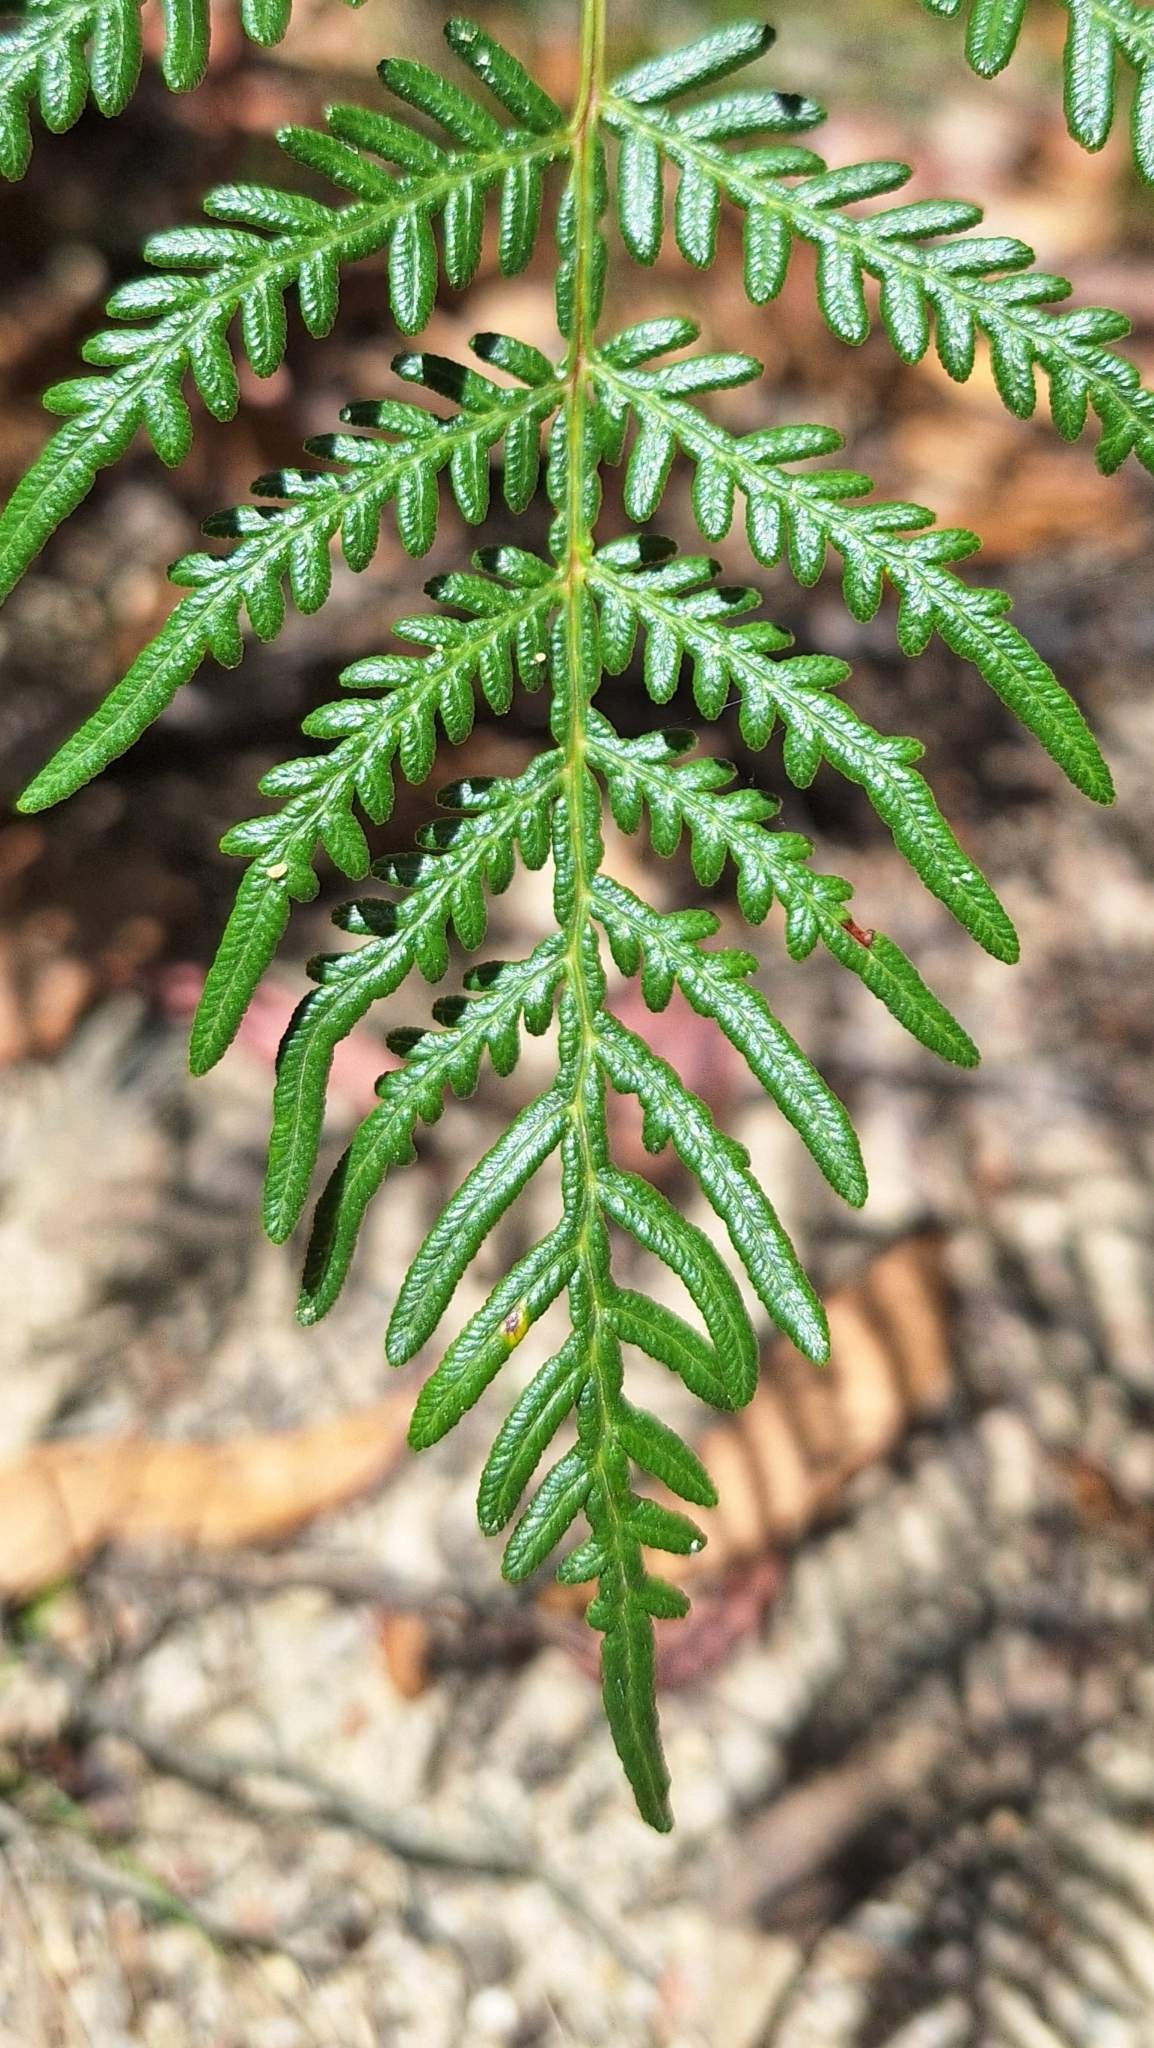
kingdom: Plantae
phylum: Tracheophyta
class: Polypodiopsida
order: Polypodiales
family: Dennstaedtiaceae
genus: Pteridium
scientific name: Pteridium esculentum
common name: Bracken fern
